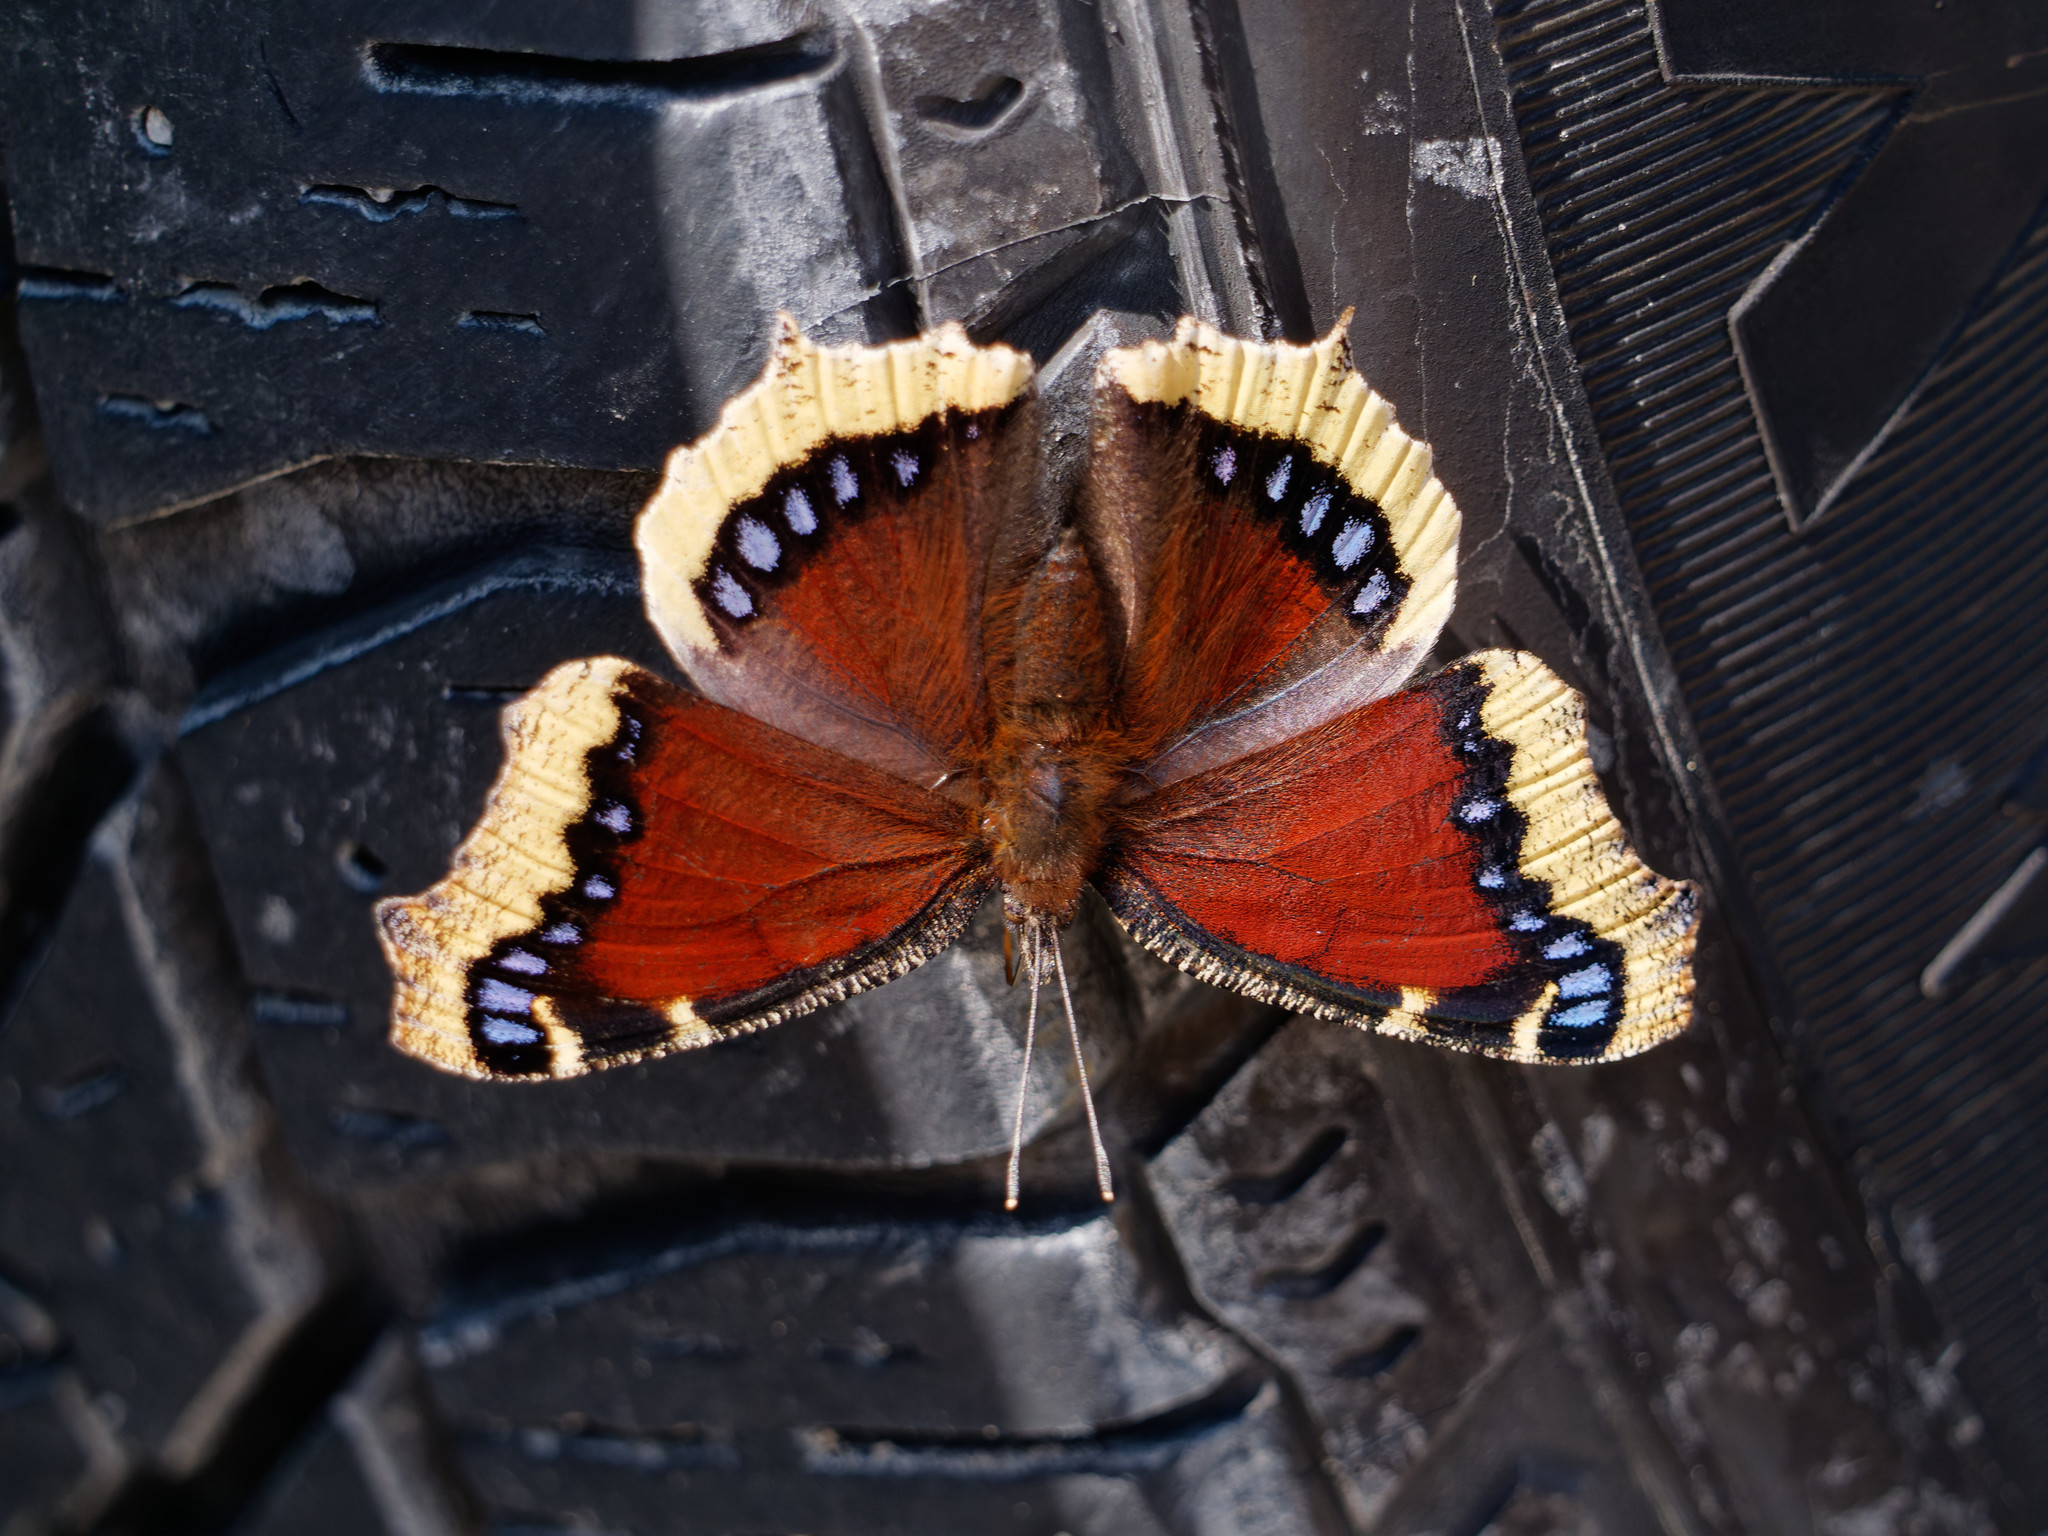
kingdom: Animalia
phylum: Arthropoda
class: Insecta
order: Lepidoptera
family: Nymphalidae
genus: Nymphalis
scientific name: Nymphalis antiopa
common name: Camberwell beauty
